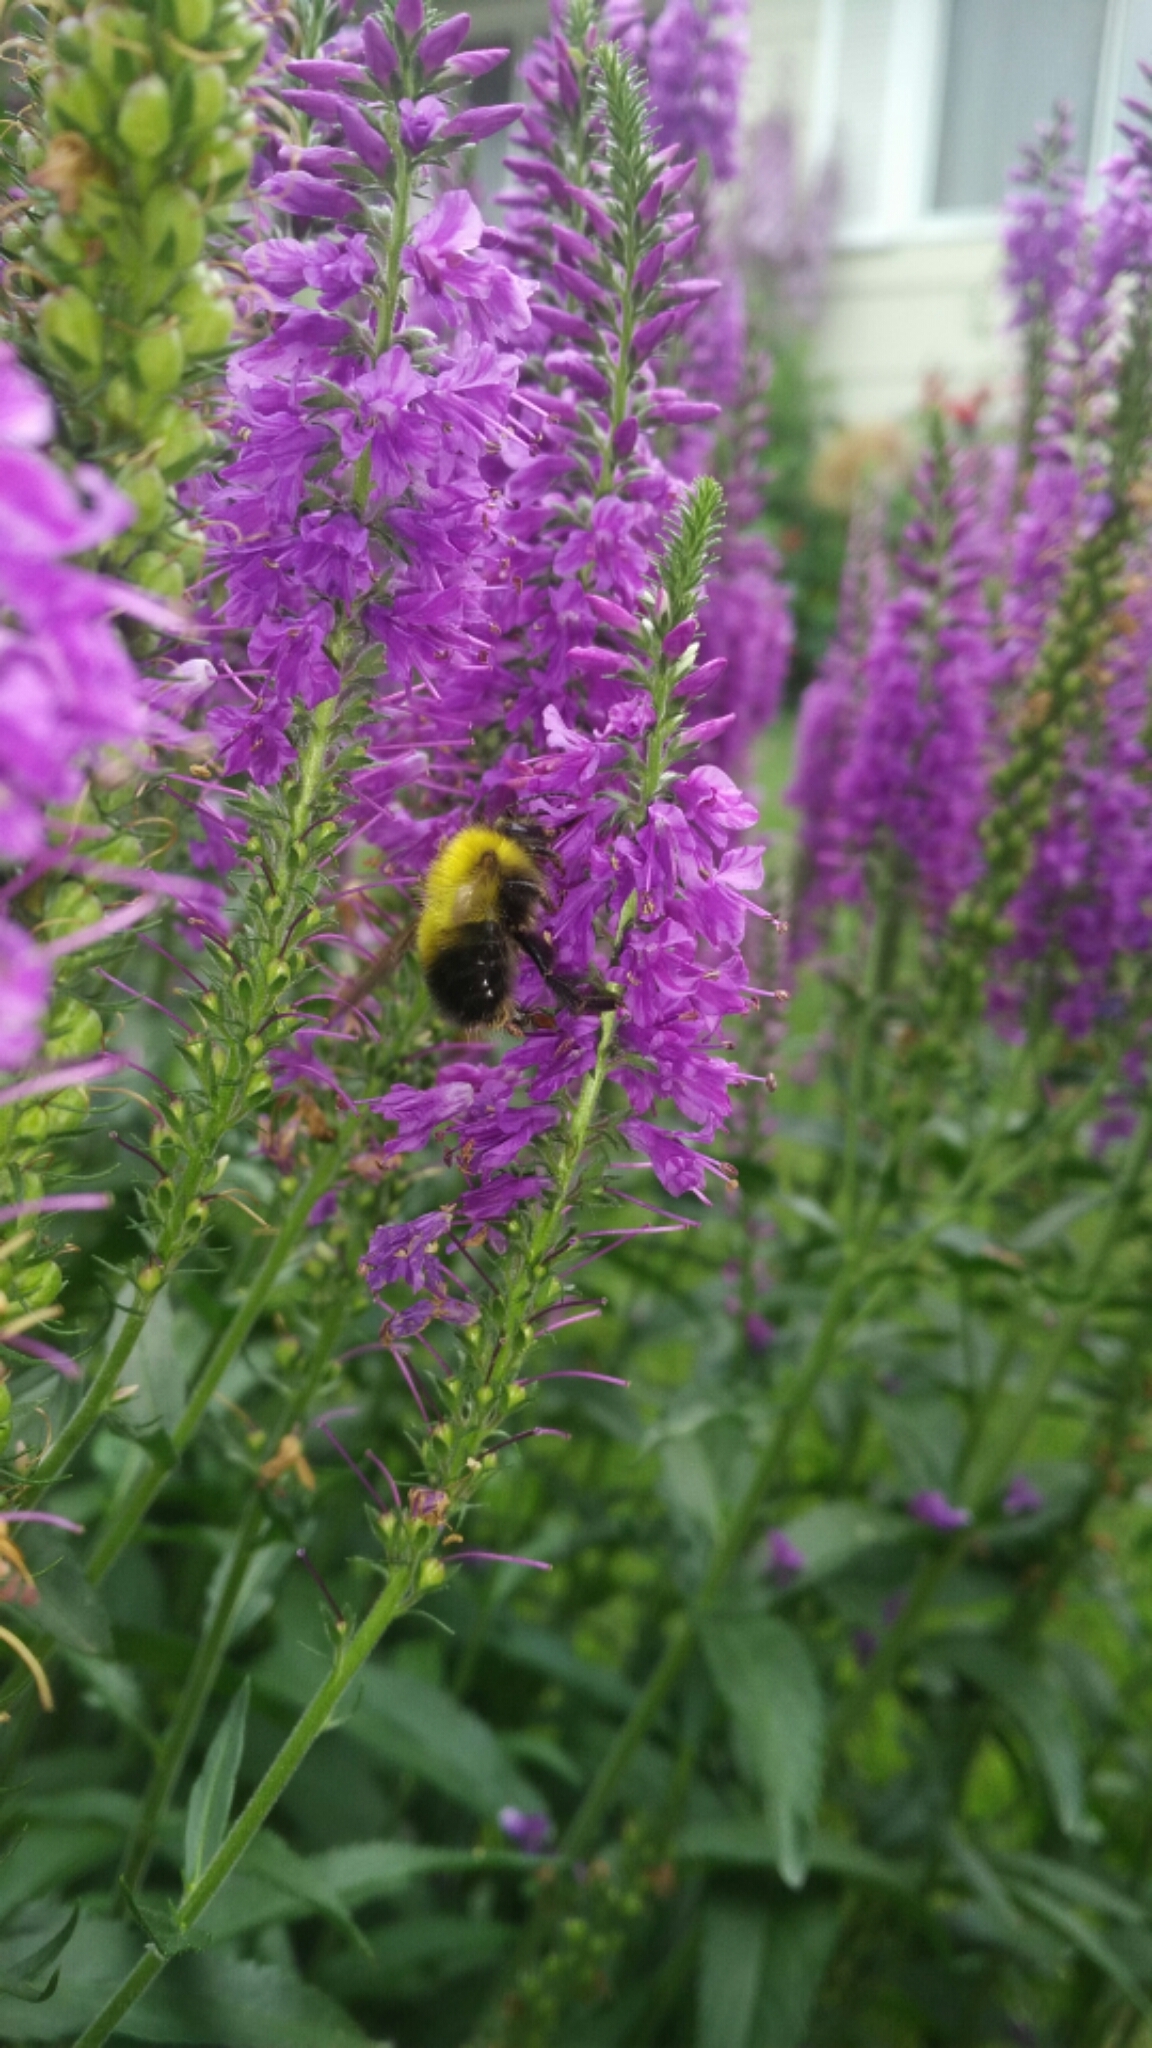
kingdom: Animalia
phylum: Arthropoda
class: Insecta
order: Hymenoptera
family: Apidae
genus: Bombus
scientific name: Bombus perplexus
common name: Confusing bumble bee
